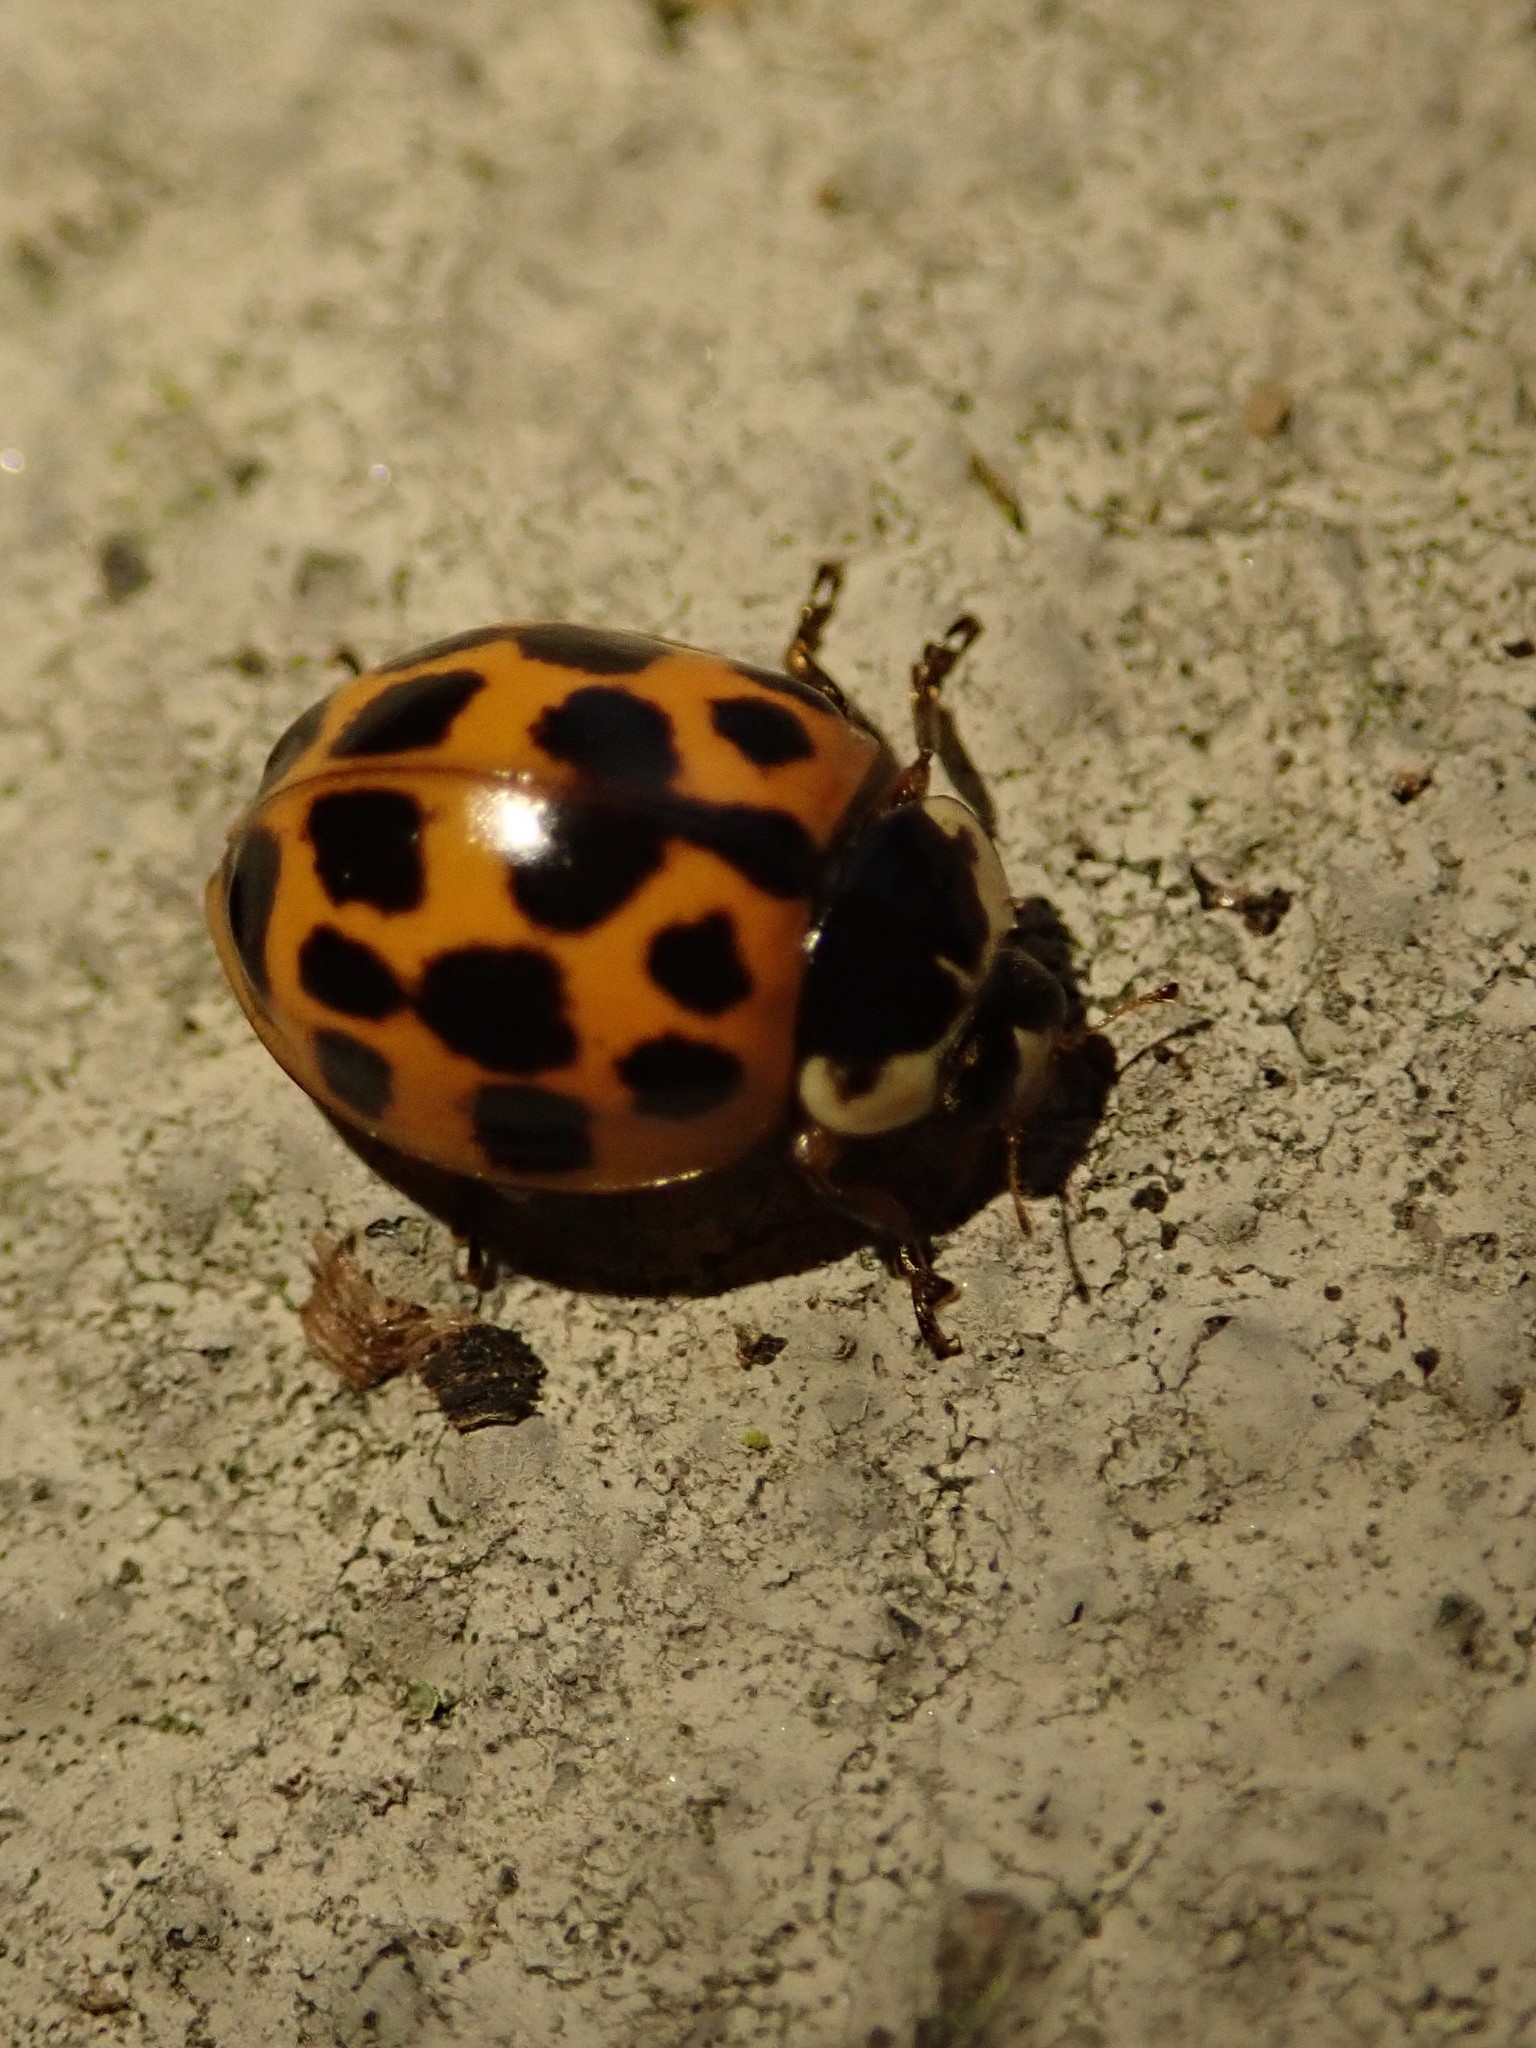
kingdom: Animalia
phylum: Arthropoda
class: Insecta
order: Coleoptera
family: Coccinellidae
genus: Harmonia
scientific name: Harmonia axyridis
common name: Harlequin ladybird
